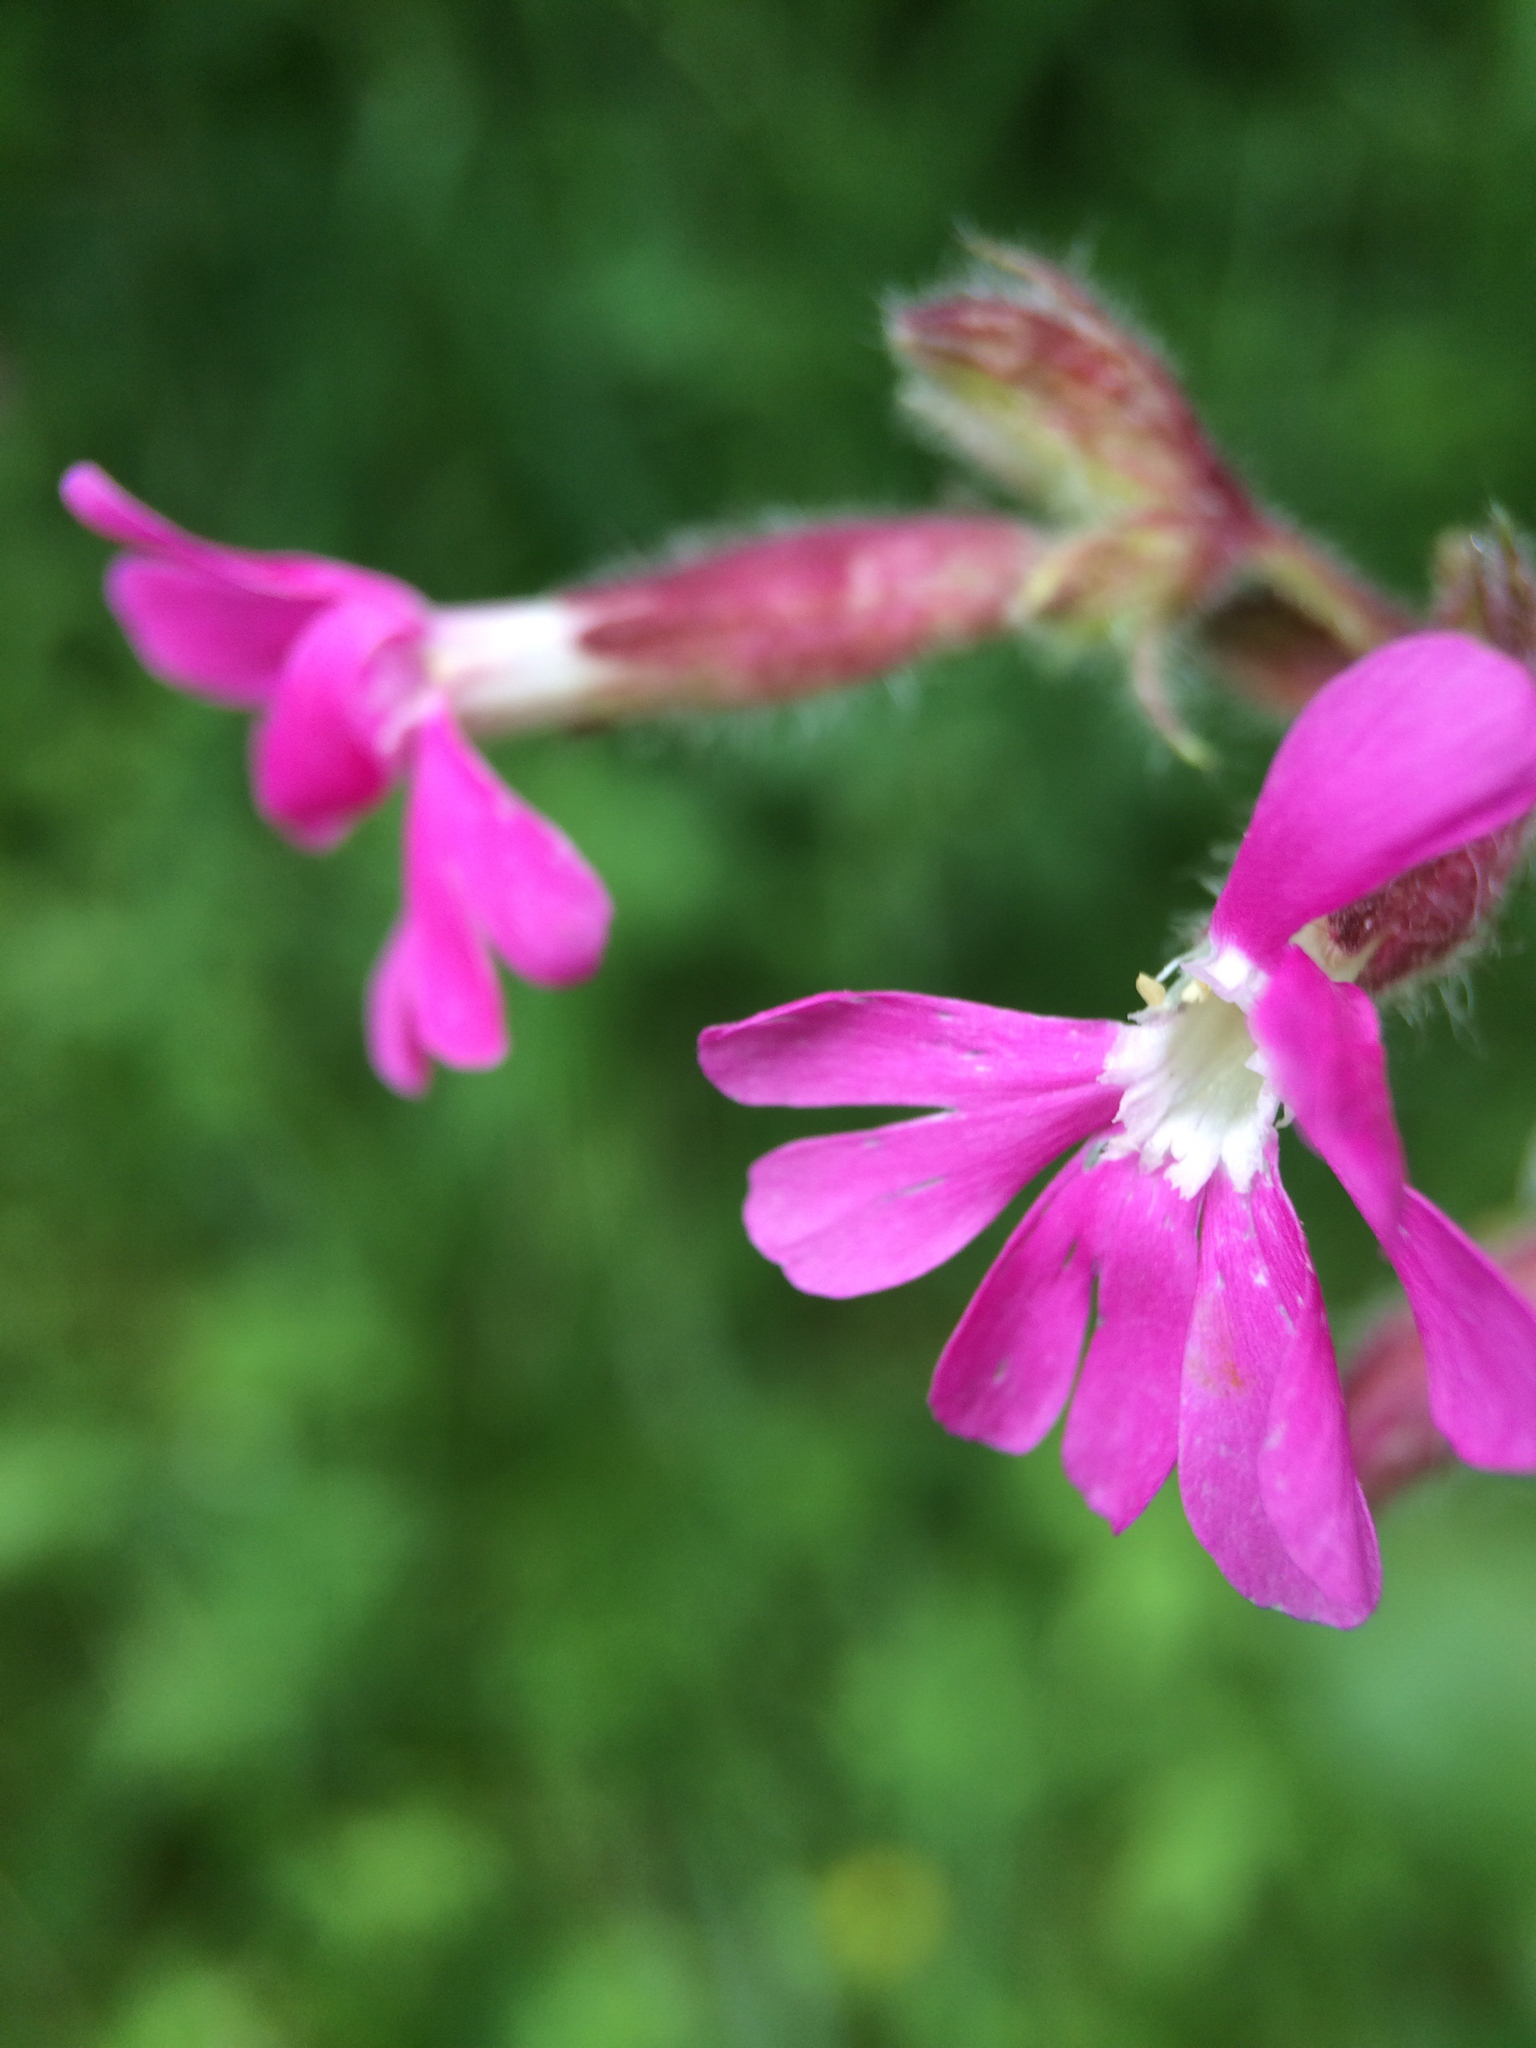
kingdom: Plantae
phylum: Tracheophyta
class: Magnoliopsida
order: Caryophyllales
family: Caryophyllaceae
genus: Silene
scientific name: Silene dioica
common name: Red campion
